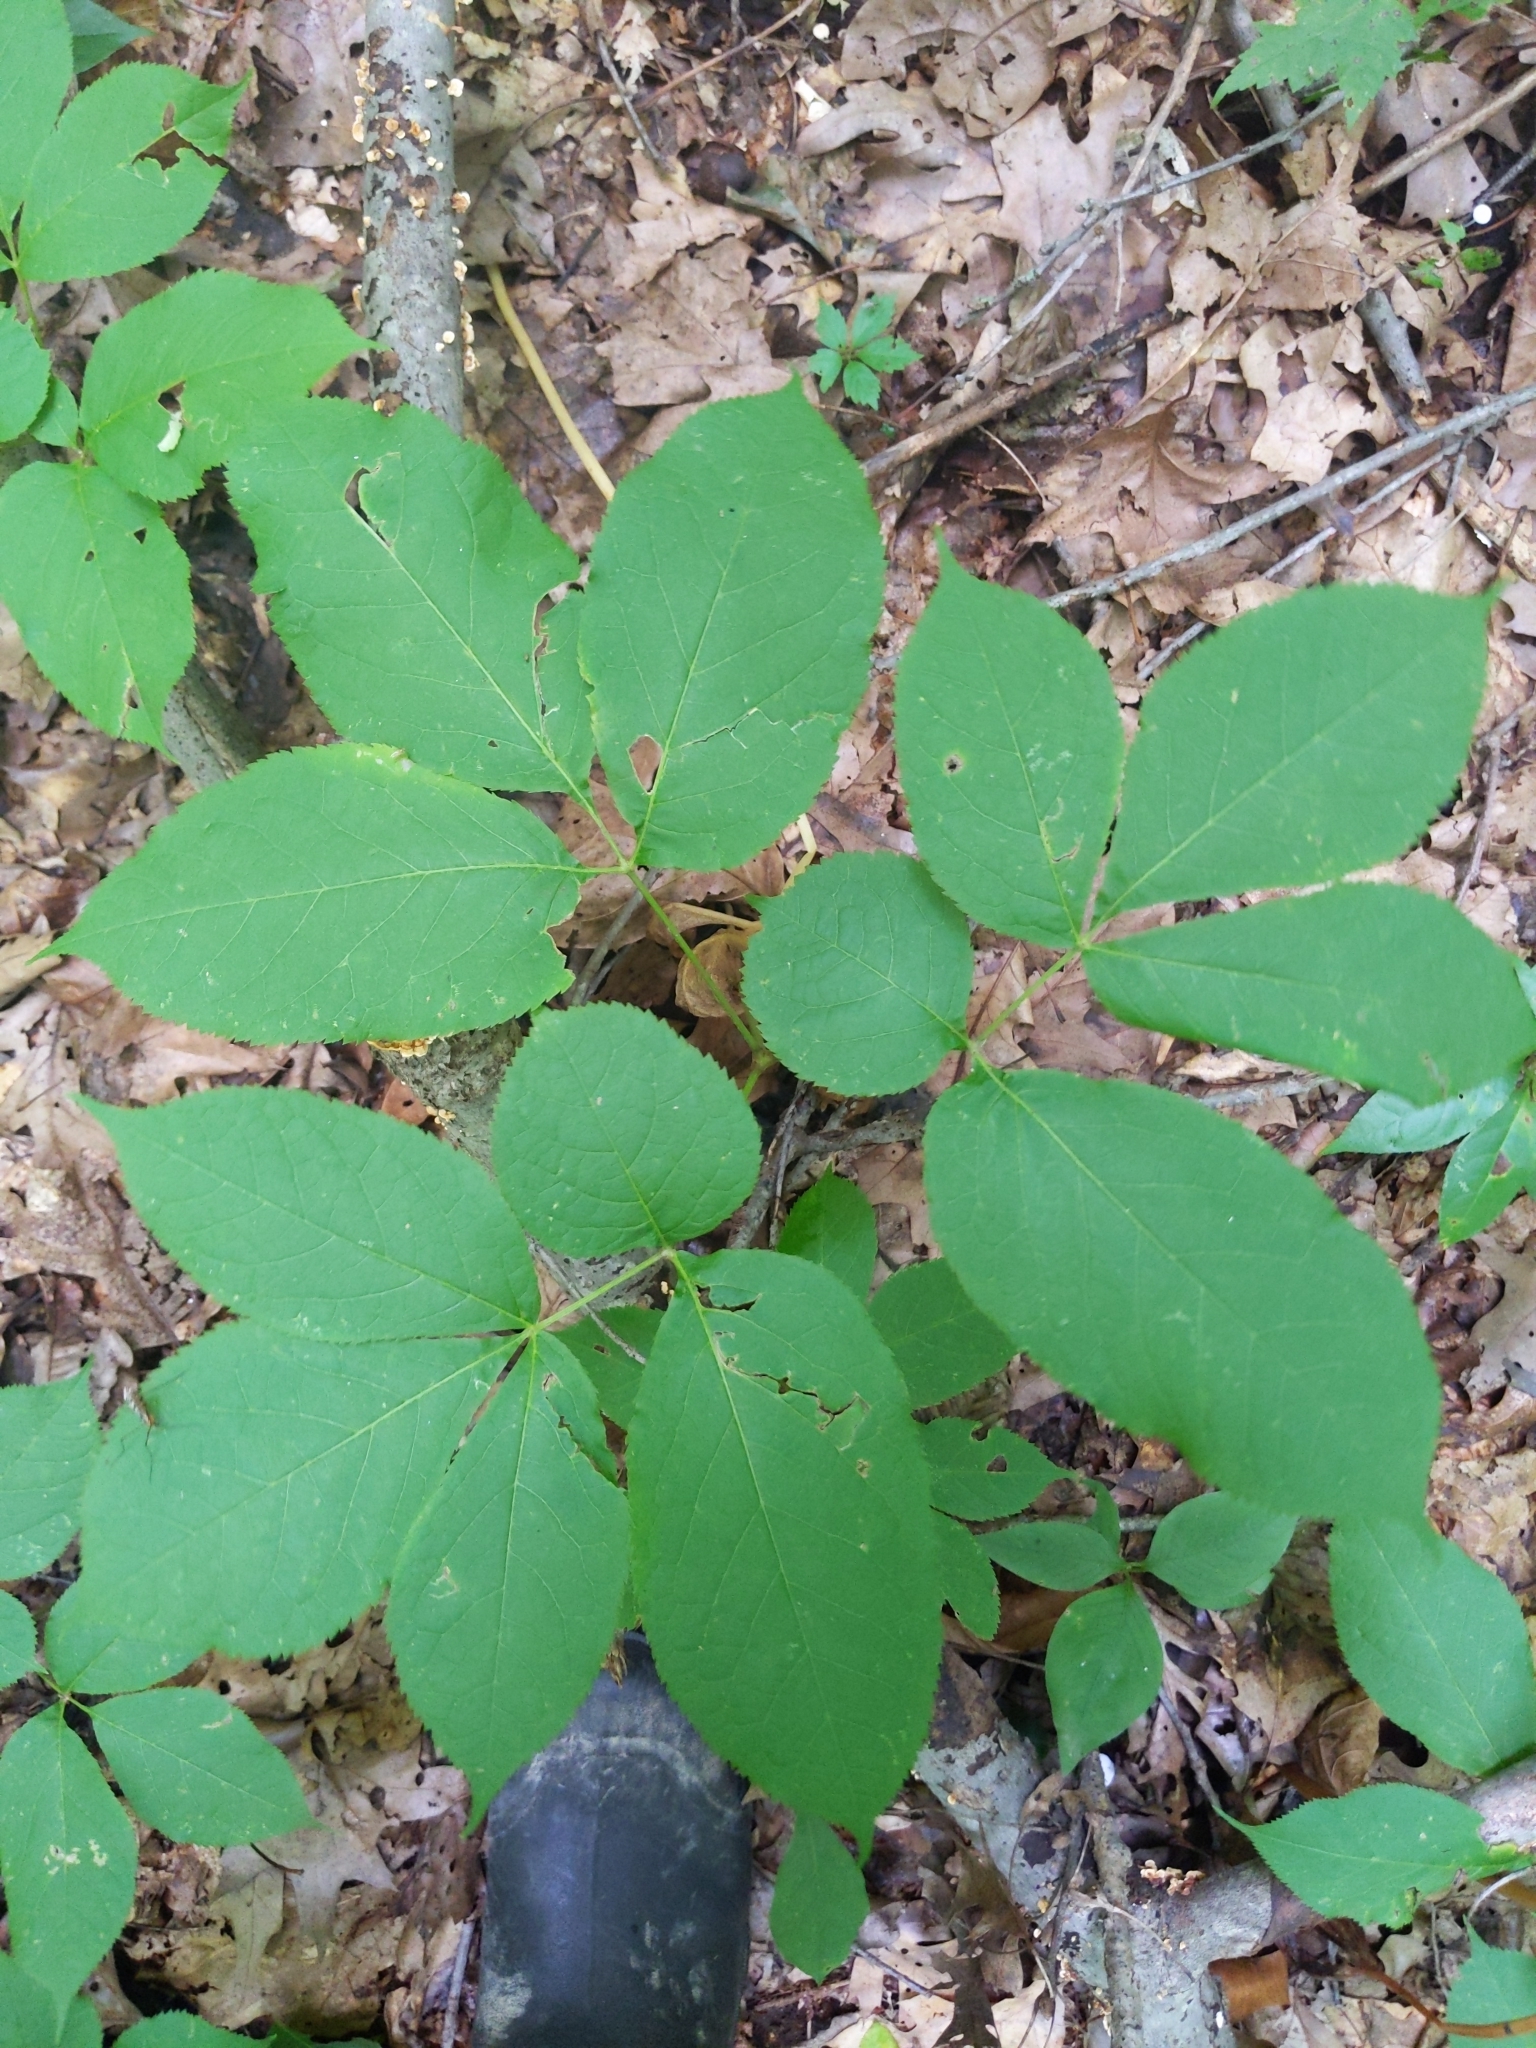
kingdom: Plantae
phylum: Tracheophyta
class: Magnoliopsida
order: Apiales
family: Araliaceae
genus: Aralia
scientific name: Aralia nudicaulis
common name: Wild sarsaparilla
